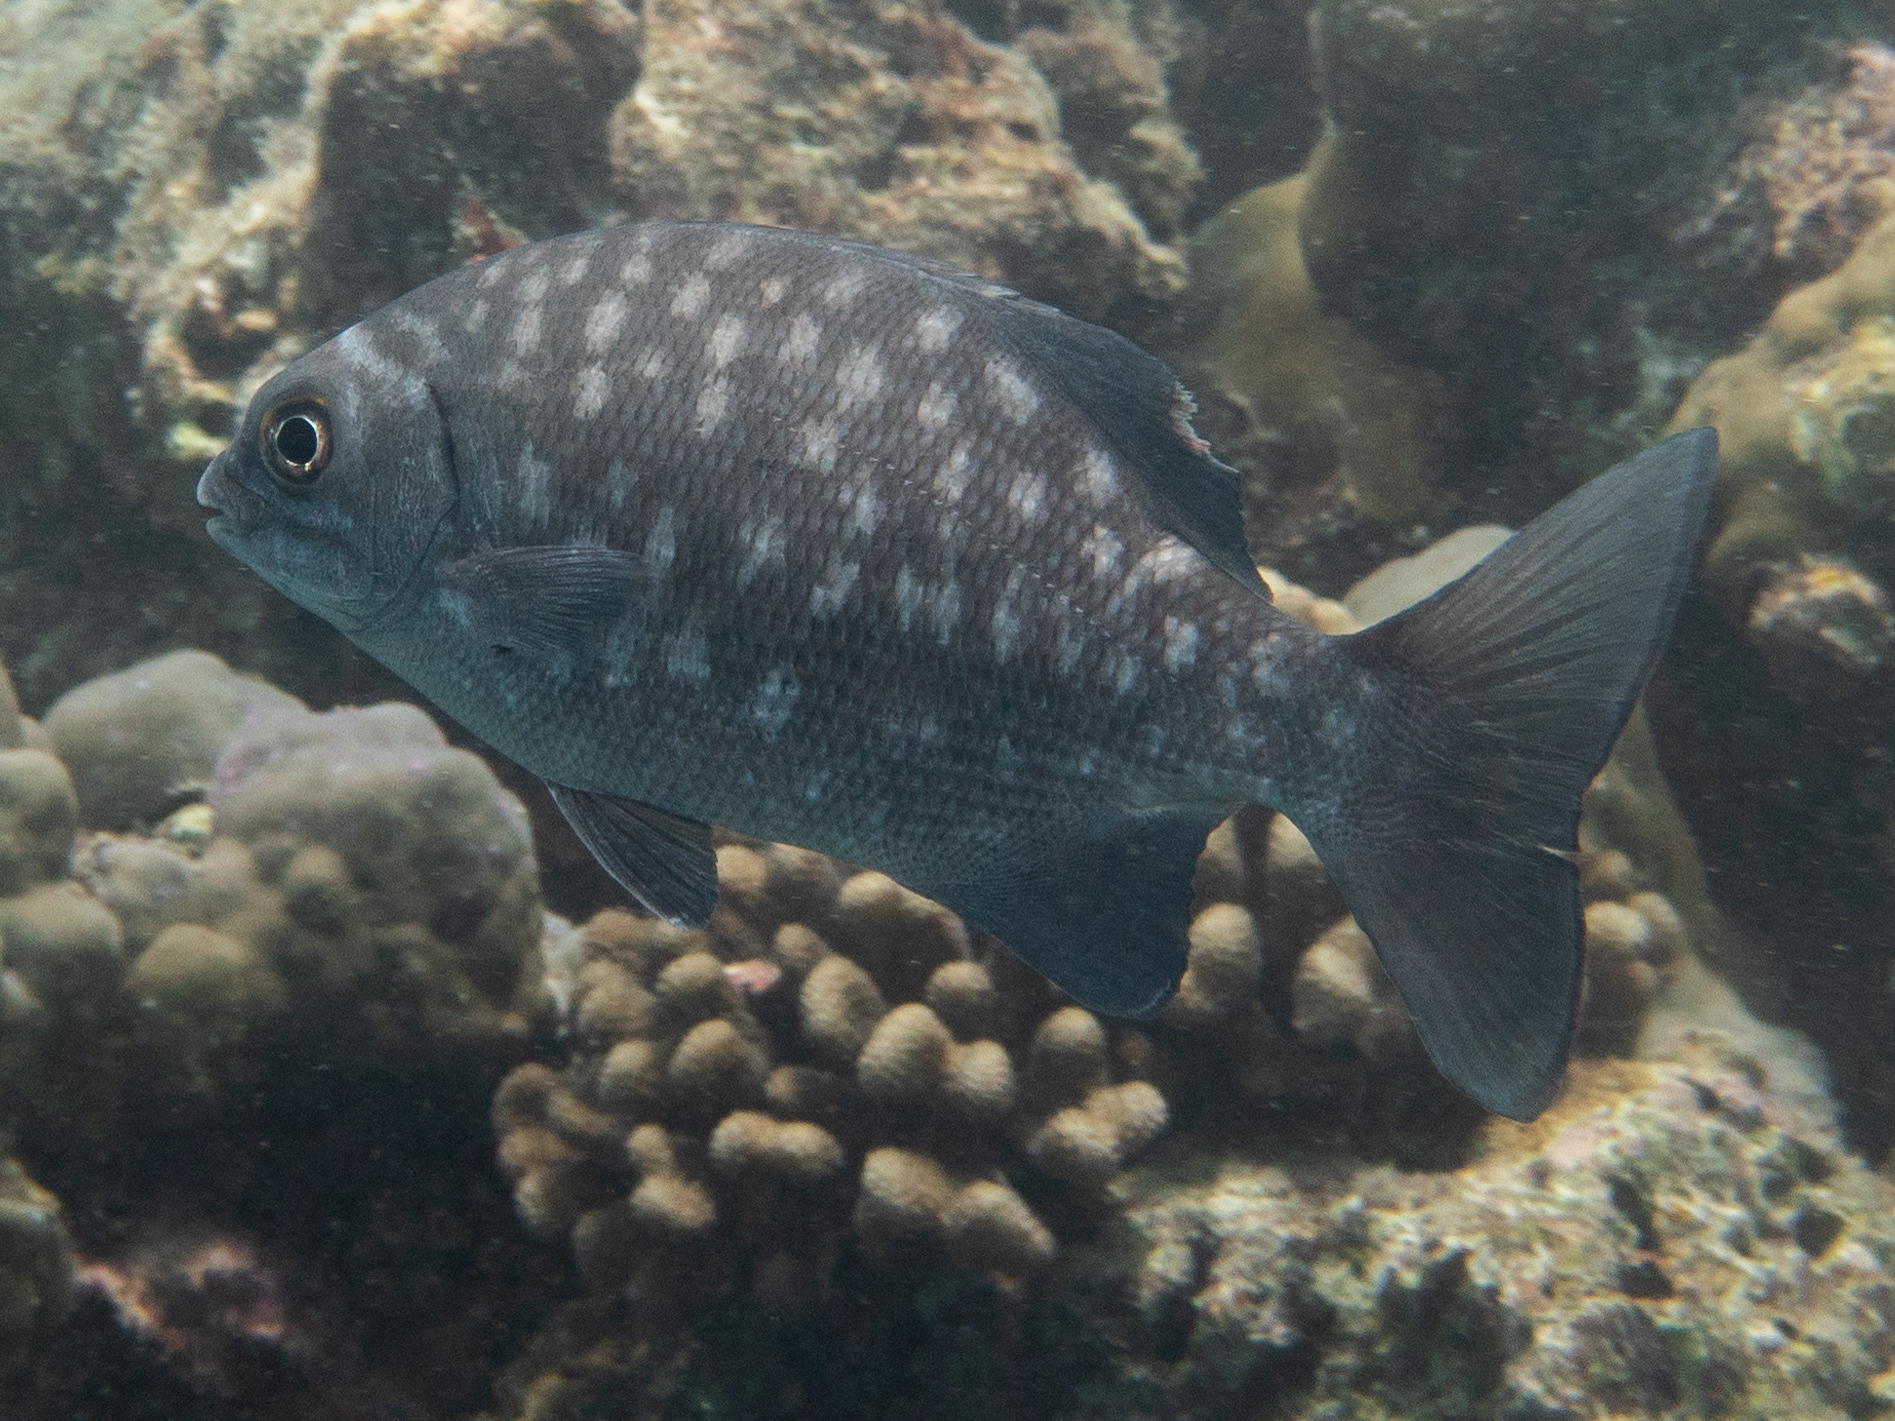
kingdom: Animalia
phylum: Chordata
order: Perciformes
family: Kyphosidae
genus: Kyphosus
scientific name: Kyphosus cinerascens
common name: Topsail drummer
